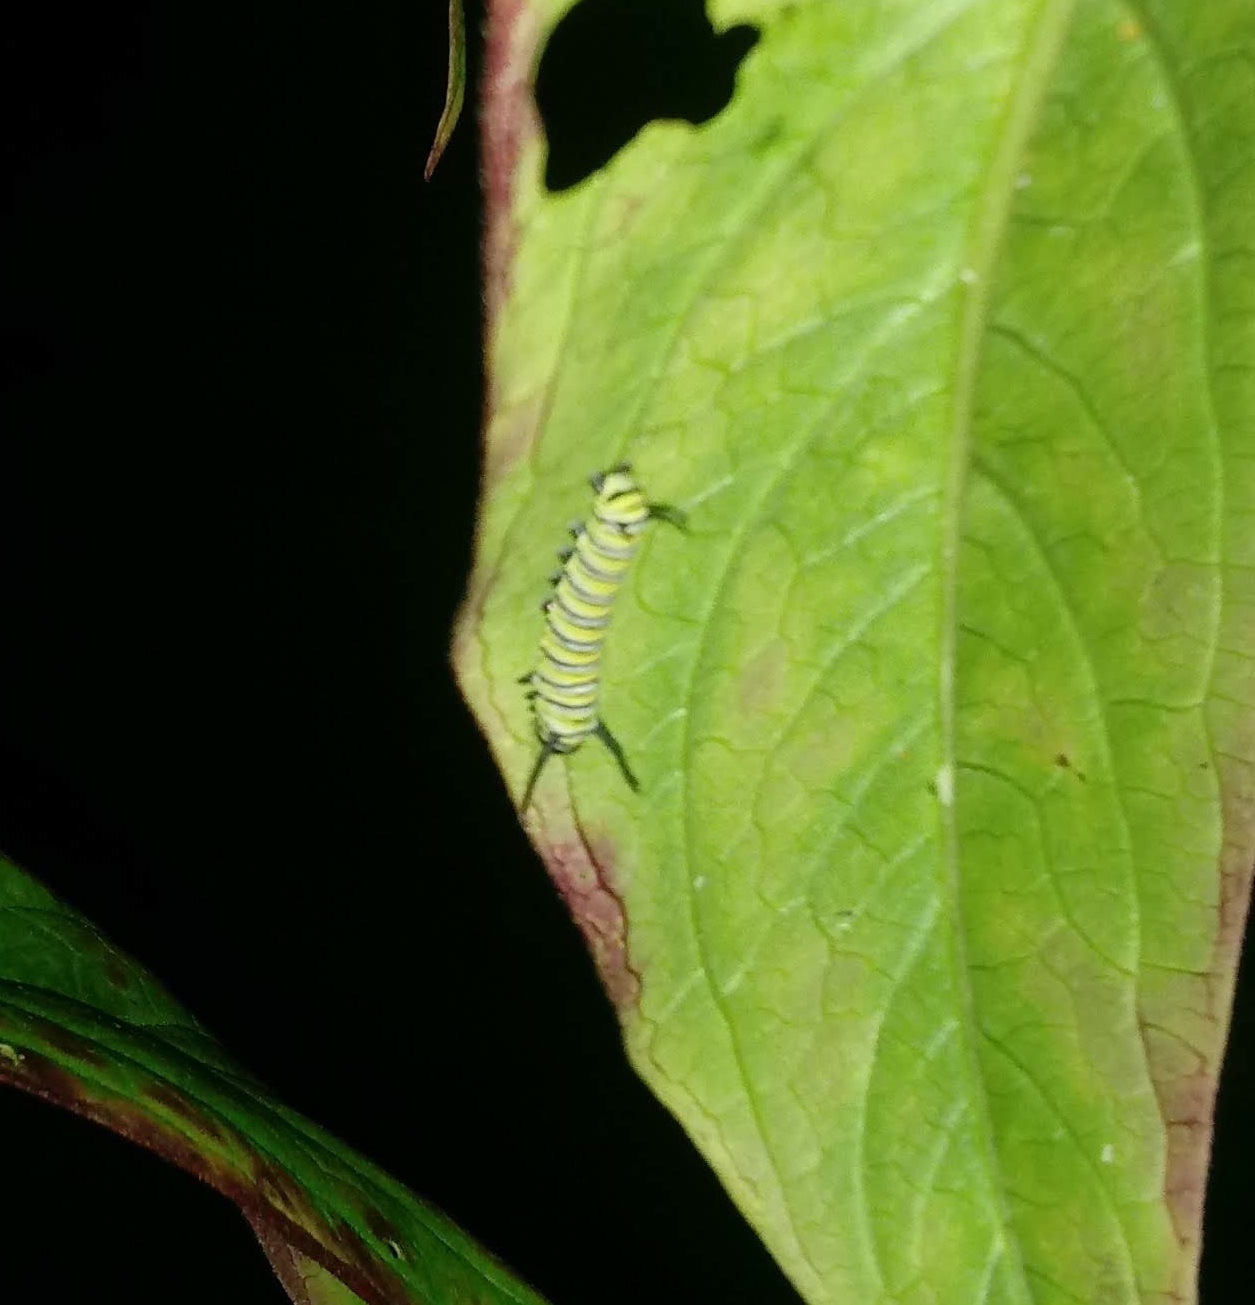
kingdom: Animalia
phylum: Arthropoda
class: Insecta
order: Lepidoptera
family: Nymphalidae
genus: Danaus
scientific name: Danaus plexippus
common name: Monarch
